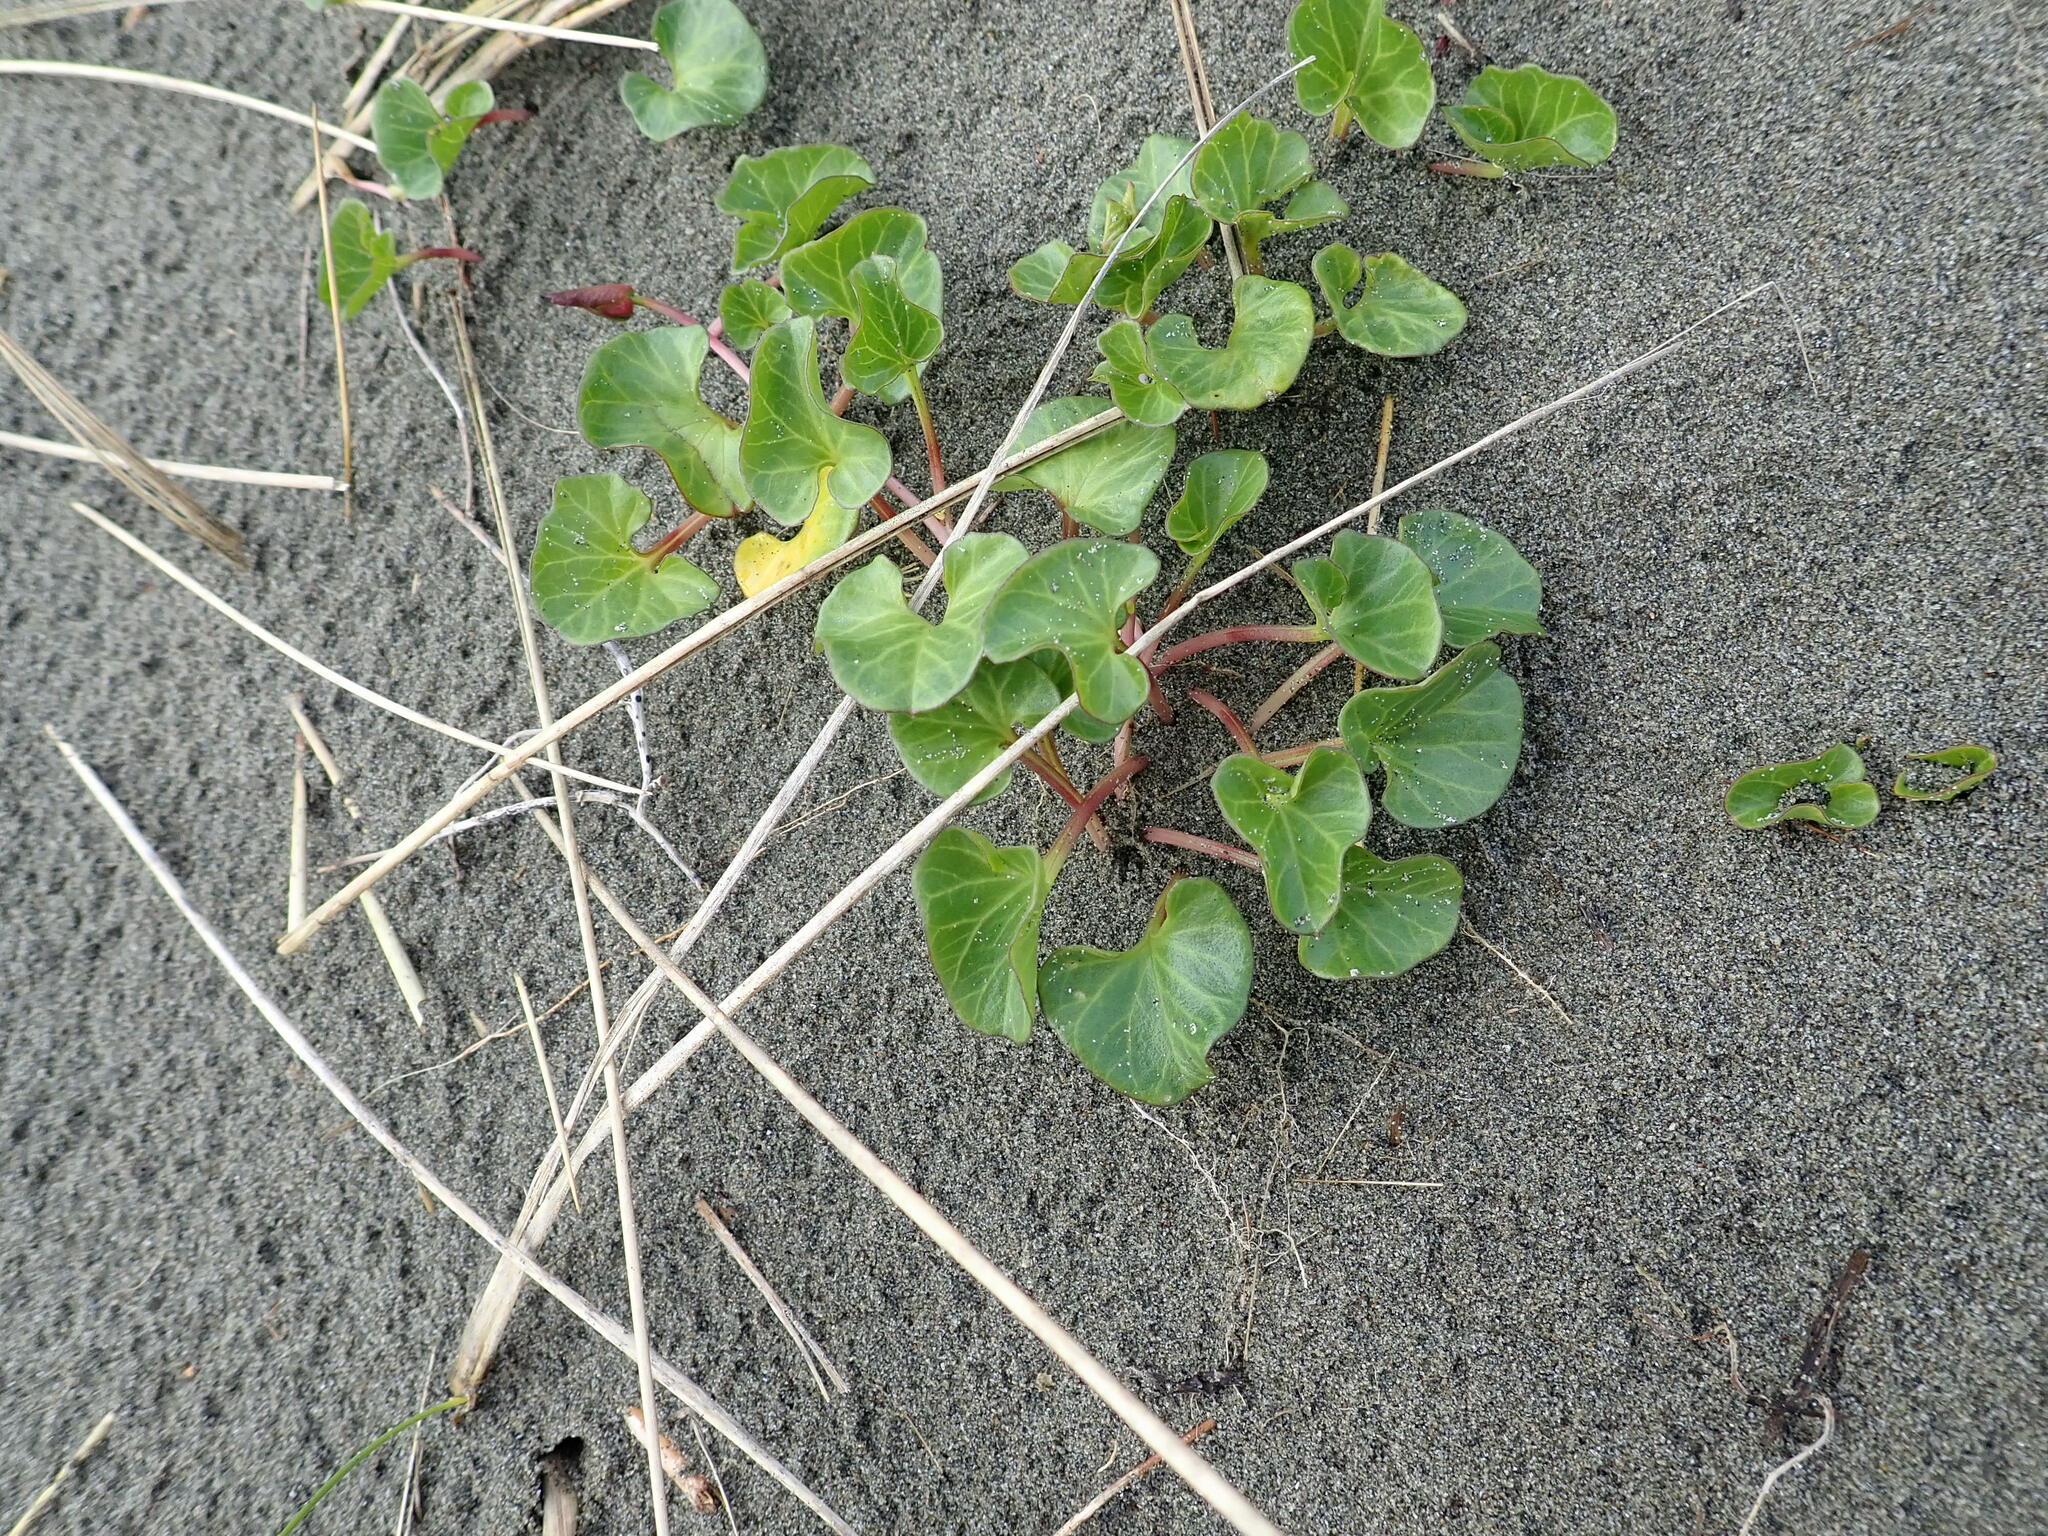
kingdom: Plantae
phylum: Tracheophyta
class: Magnoliopsida
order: Solanales
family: Convolvulaceae
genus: Calystegia
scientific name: Calystegia soldanella
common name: Sea bindweed
